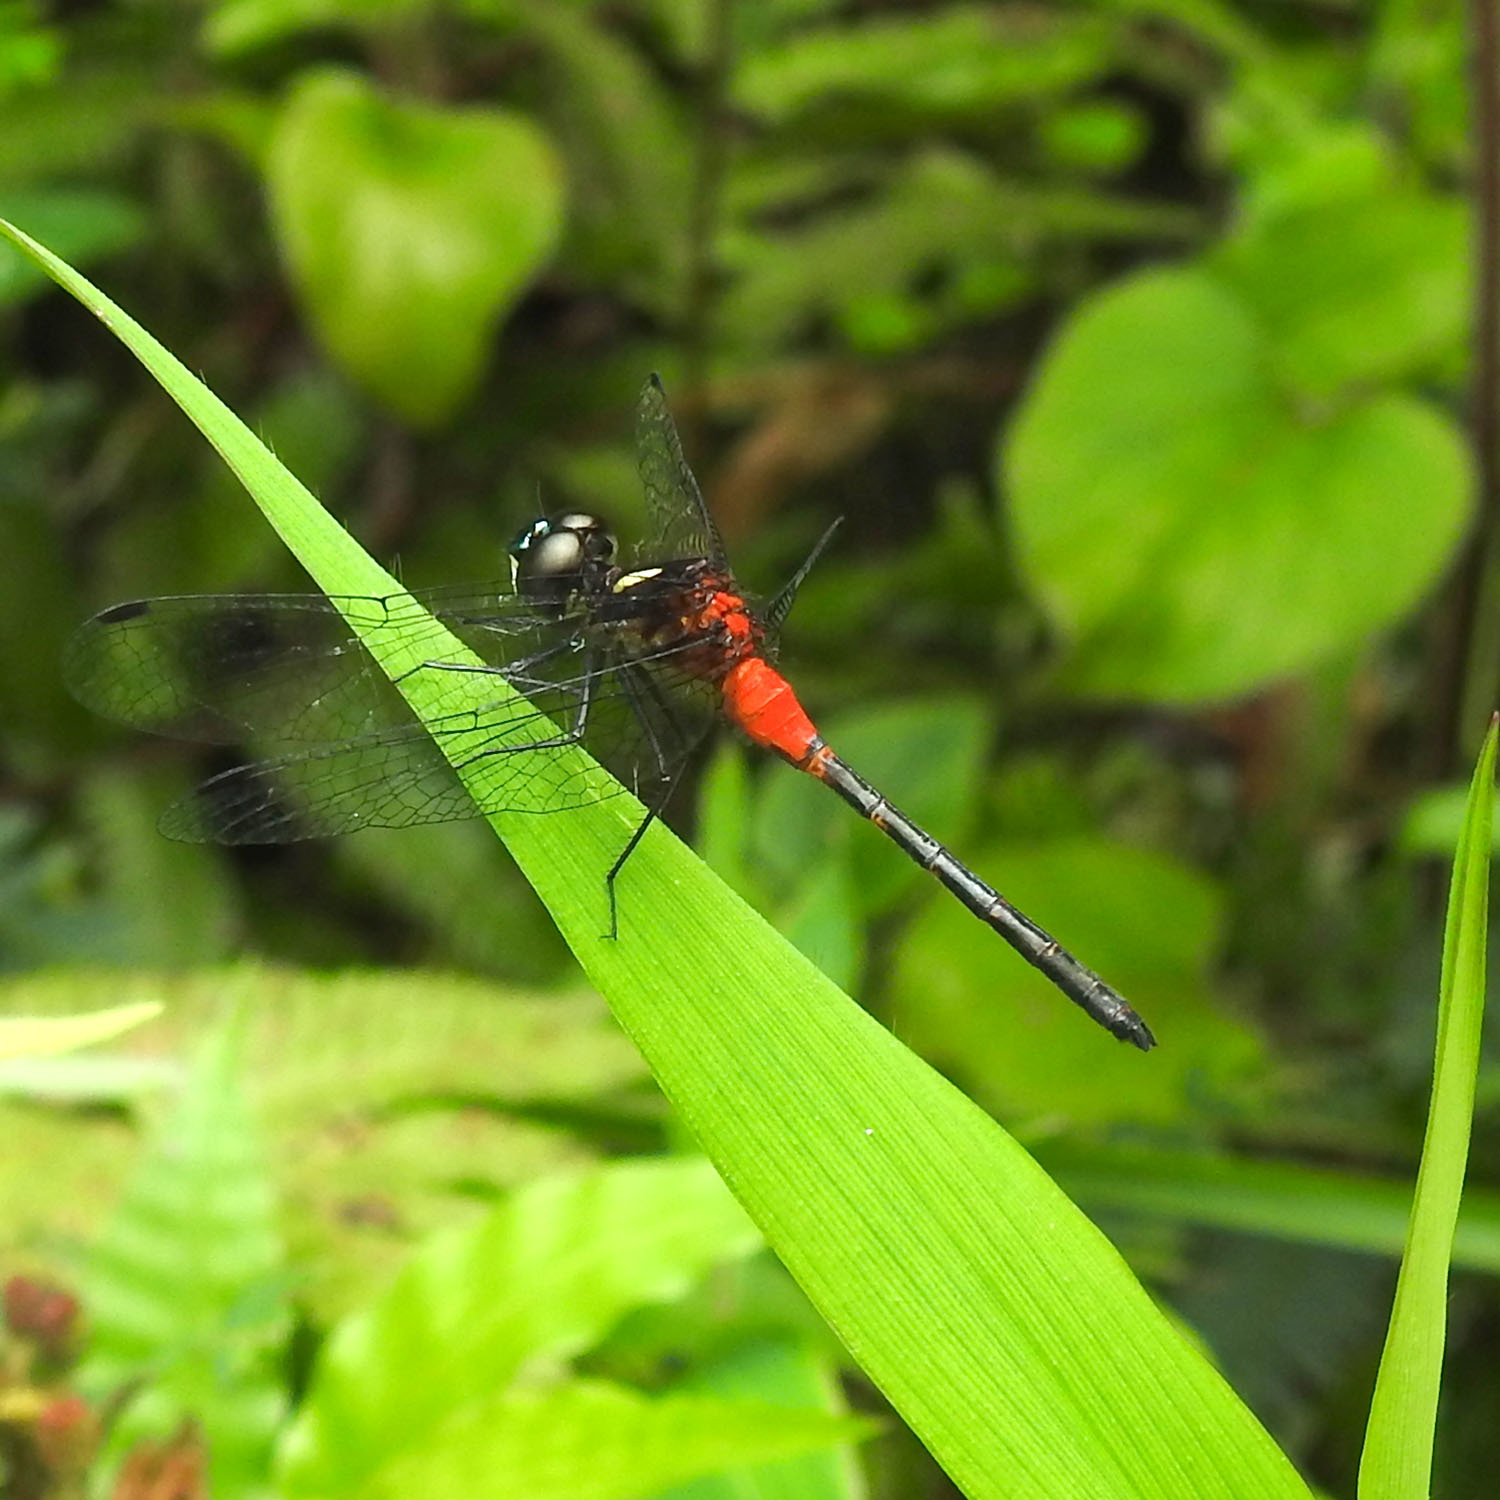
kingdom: Animalia
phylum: Arthropoda
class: Insecta
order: Odonata
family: Libellulidae
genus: Epithemis
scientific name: Epithemis mariae
